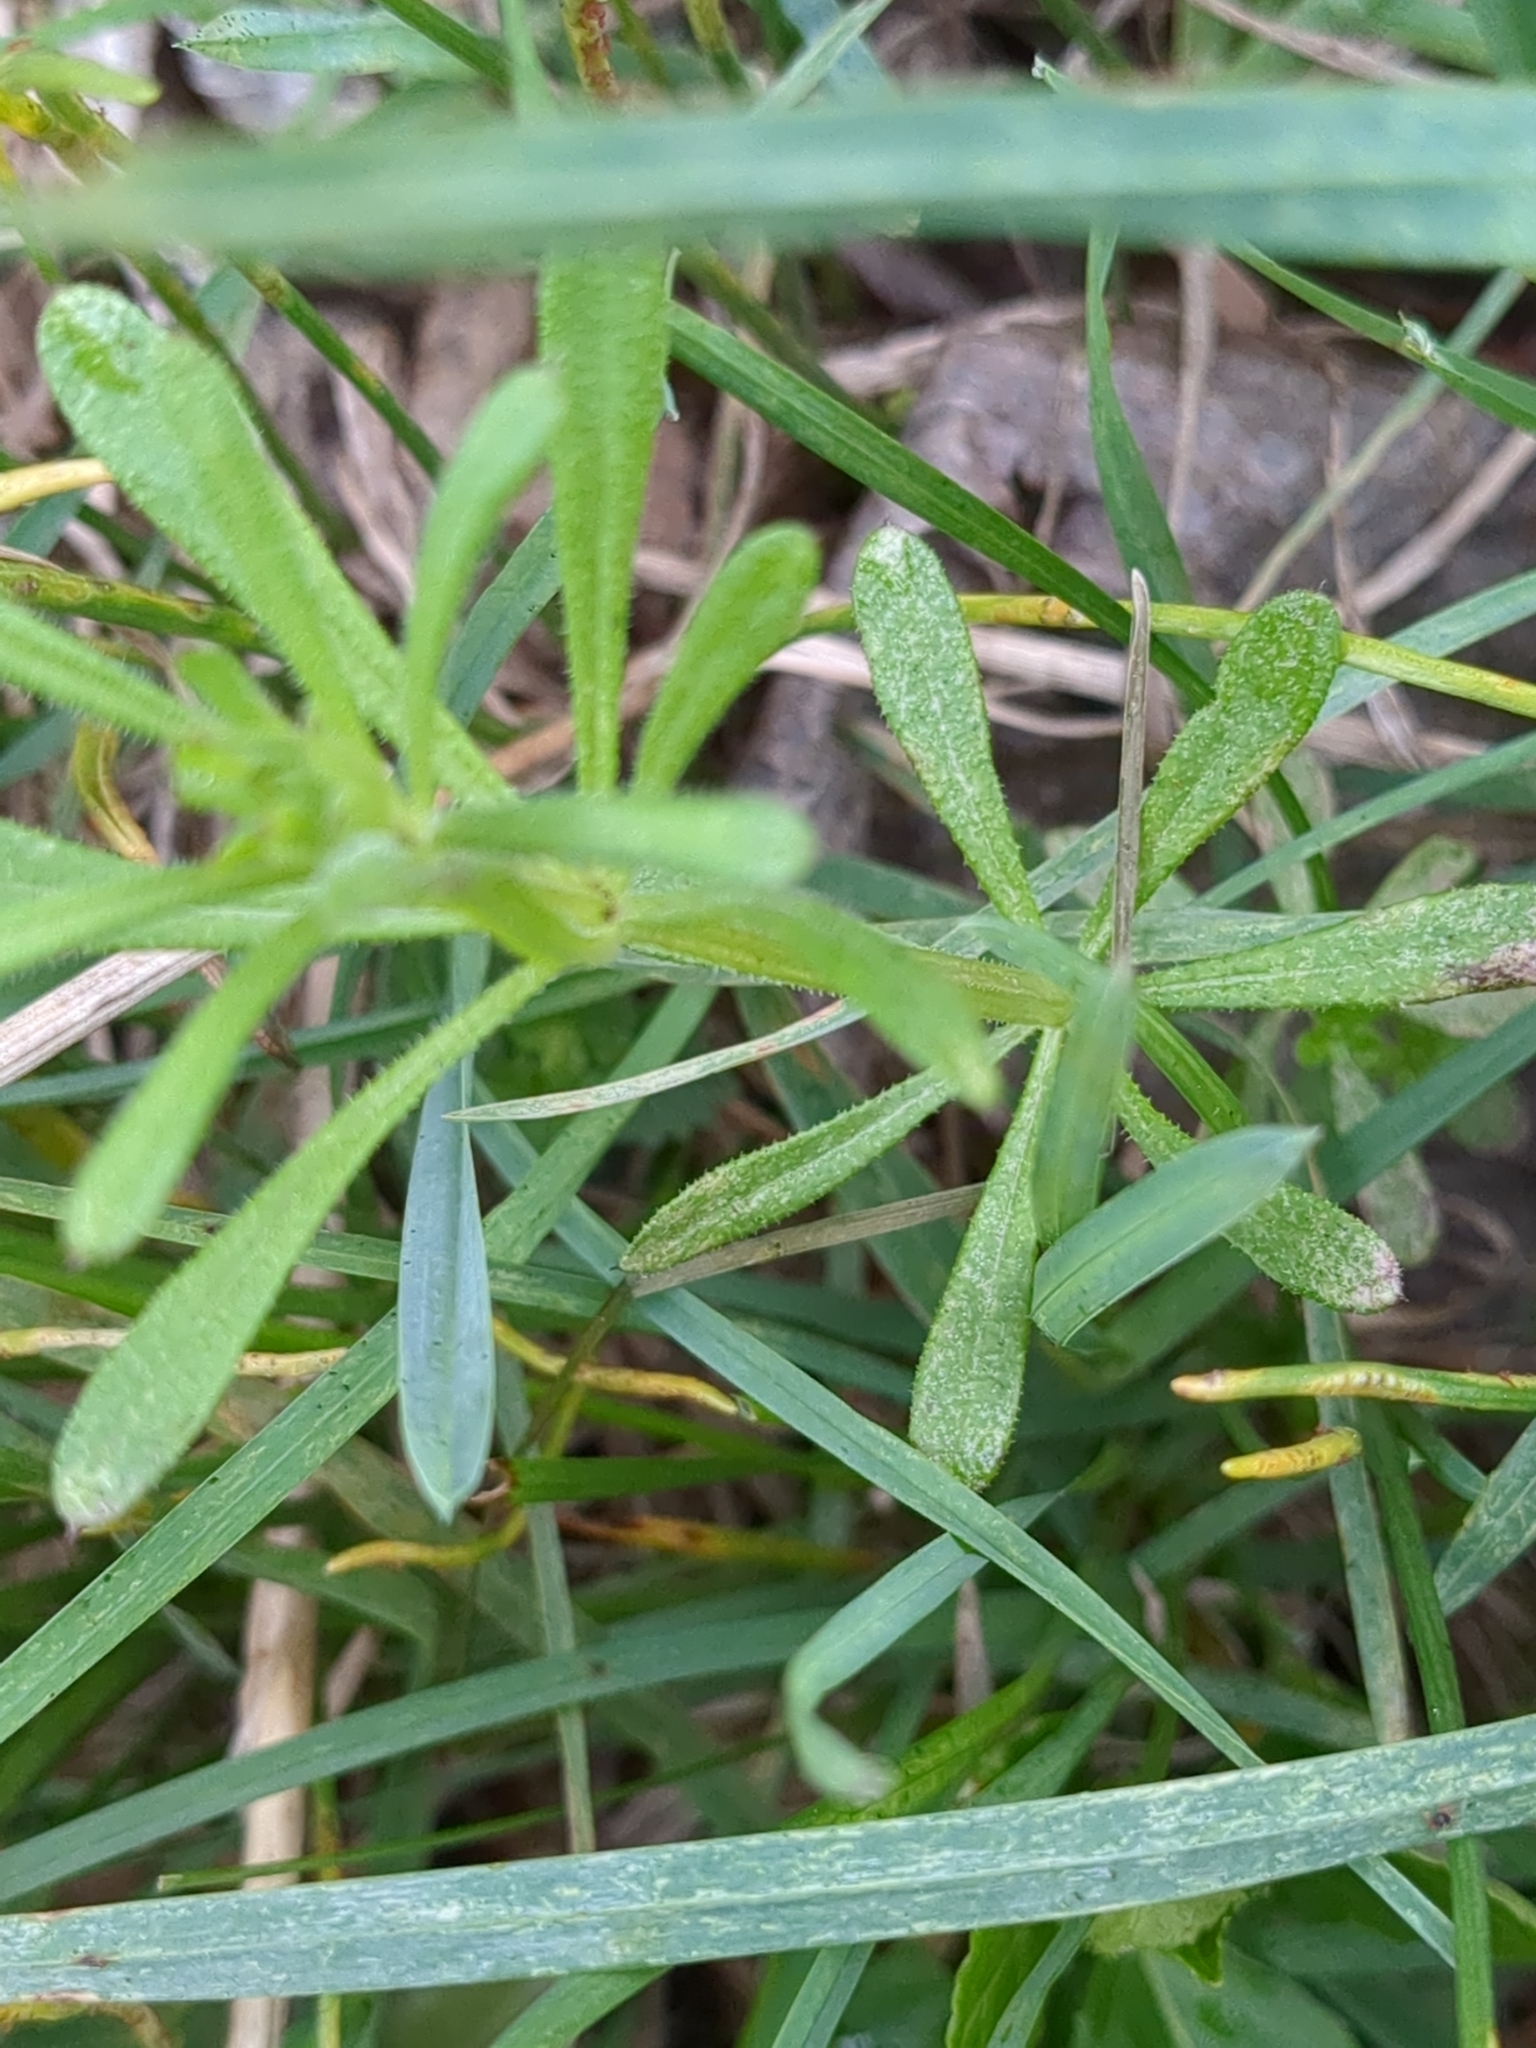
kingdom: Plantae
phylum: Tracheophyta
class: Magnoliopsida
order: Gentianales
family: Rubiaceae
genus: Galium
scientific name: Galium aparine
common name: Cleavers
